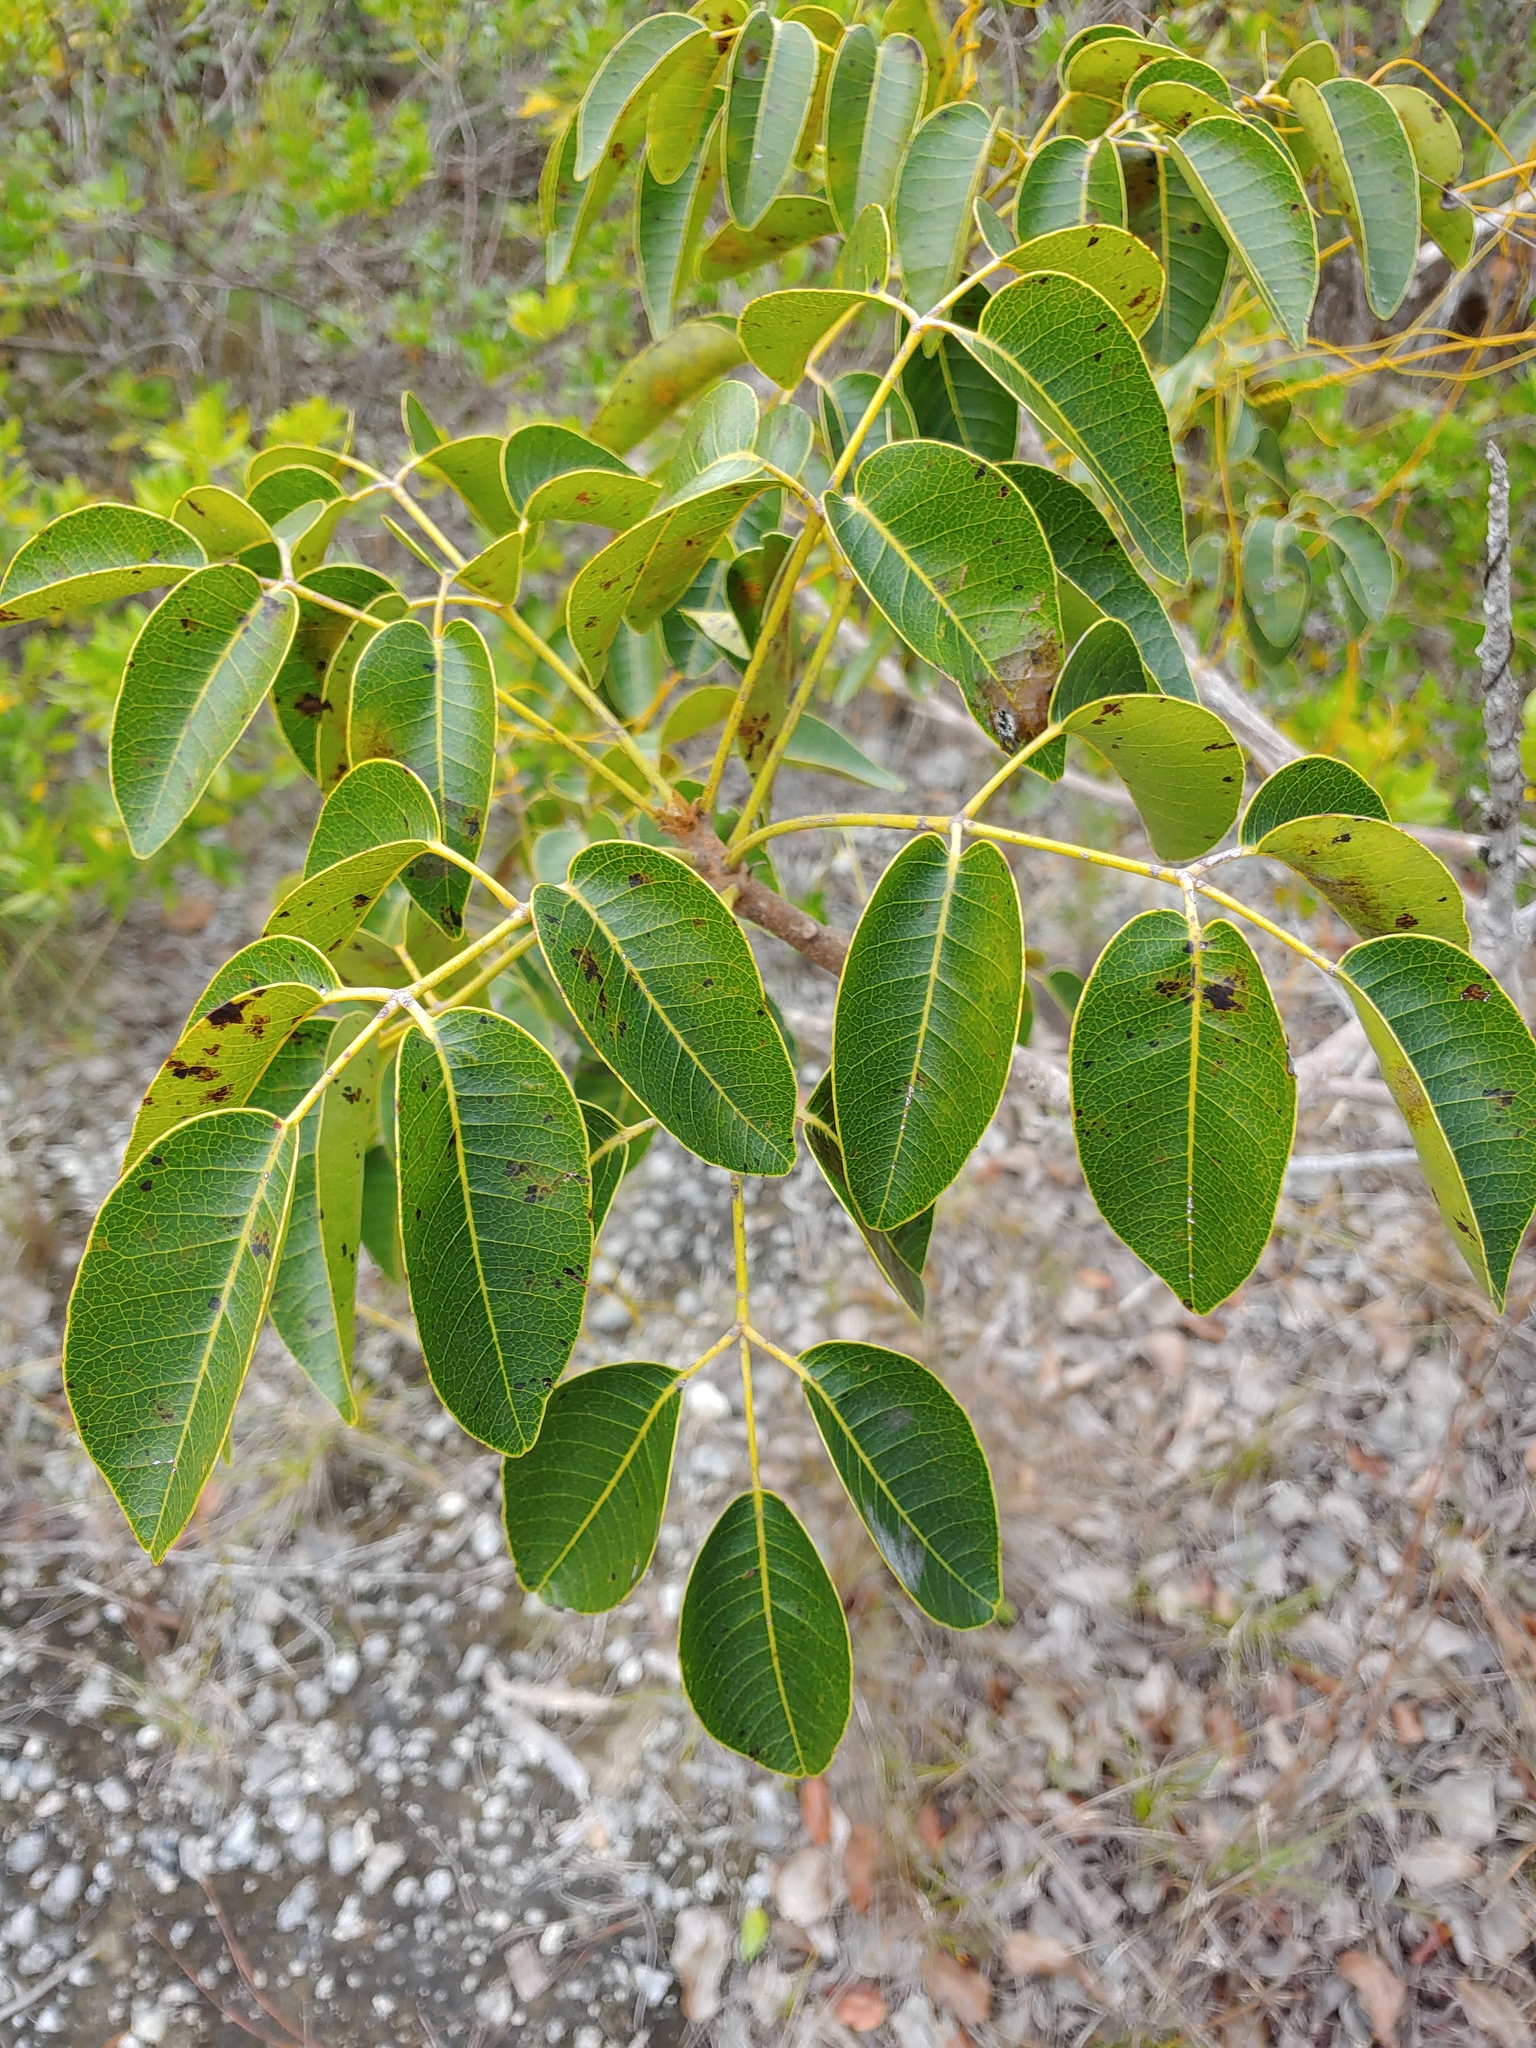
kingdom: Plantae
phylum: Tracheophyta
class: Magnoliopsida
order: Sapindales
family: Anacardiaceae
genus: Metopium
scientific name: Metopium toxiferum
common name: Florida poisontree
